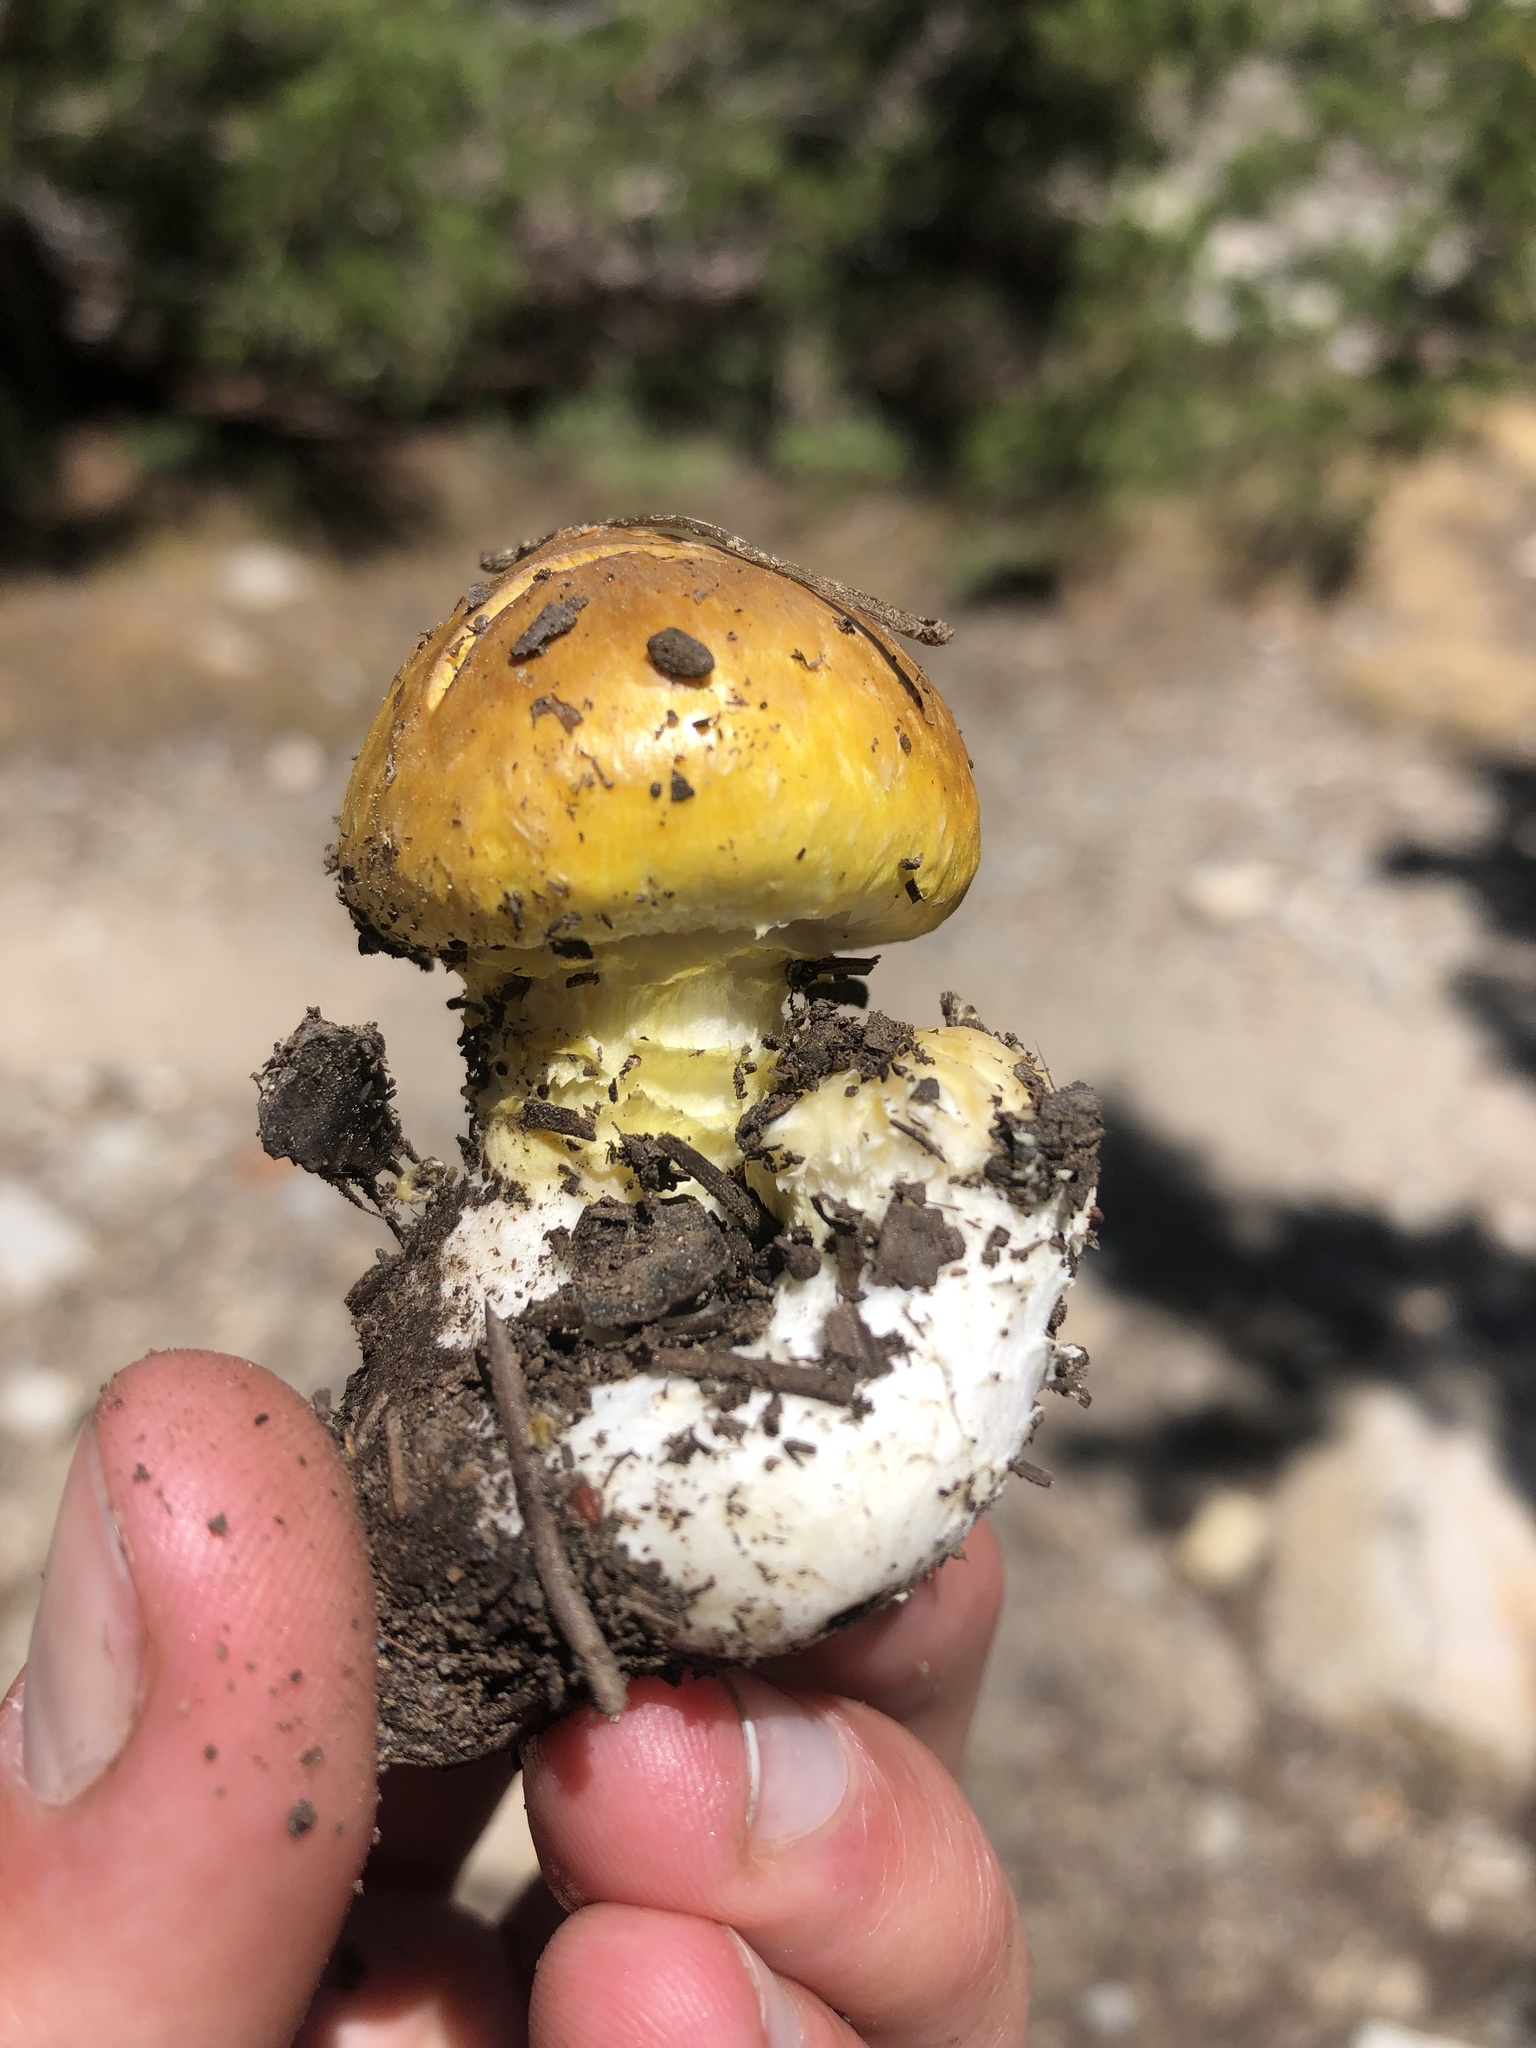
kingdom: Fungi
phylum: Basidiomycota
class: Agaricomycetes
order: Agaricales
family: Agaricaceae
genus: Floccularia
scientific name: Floccularia albolanaripes
